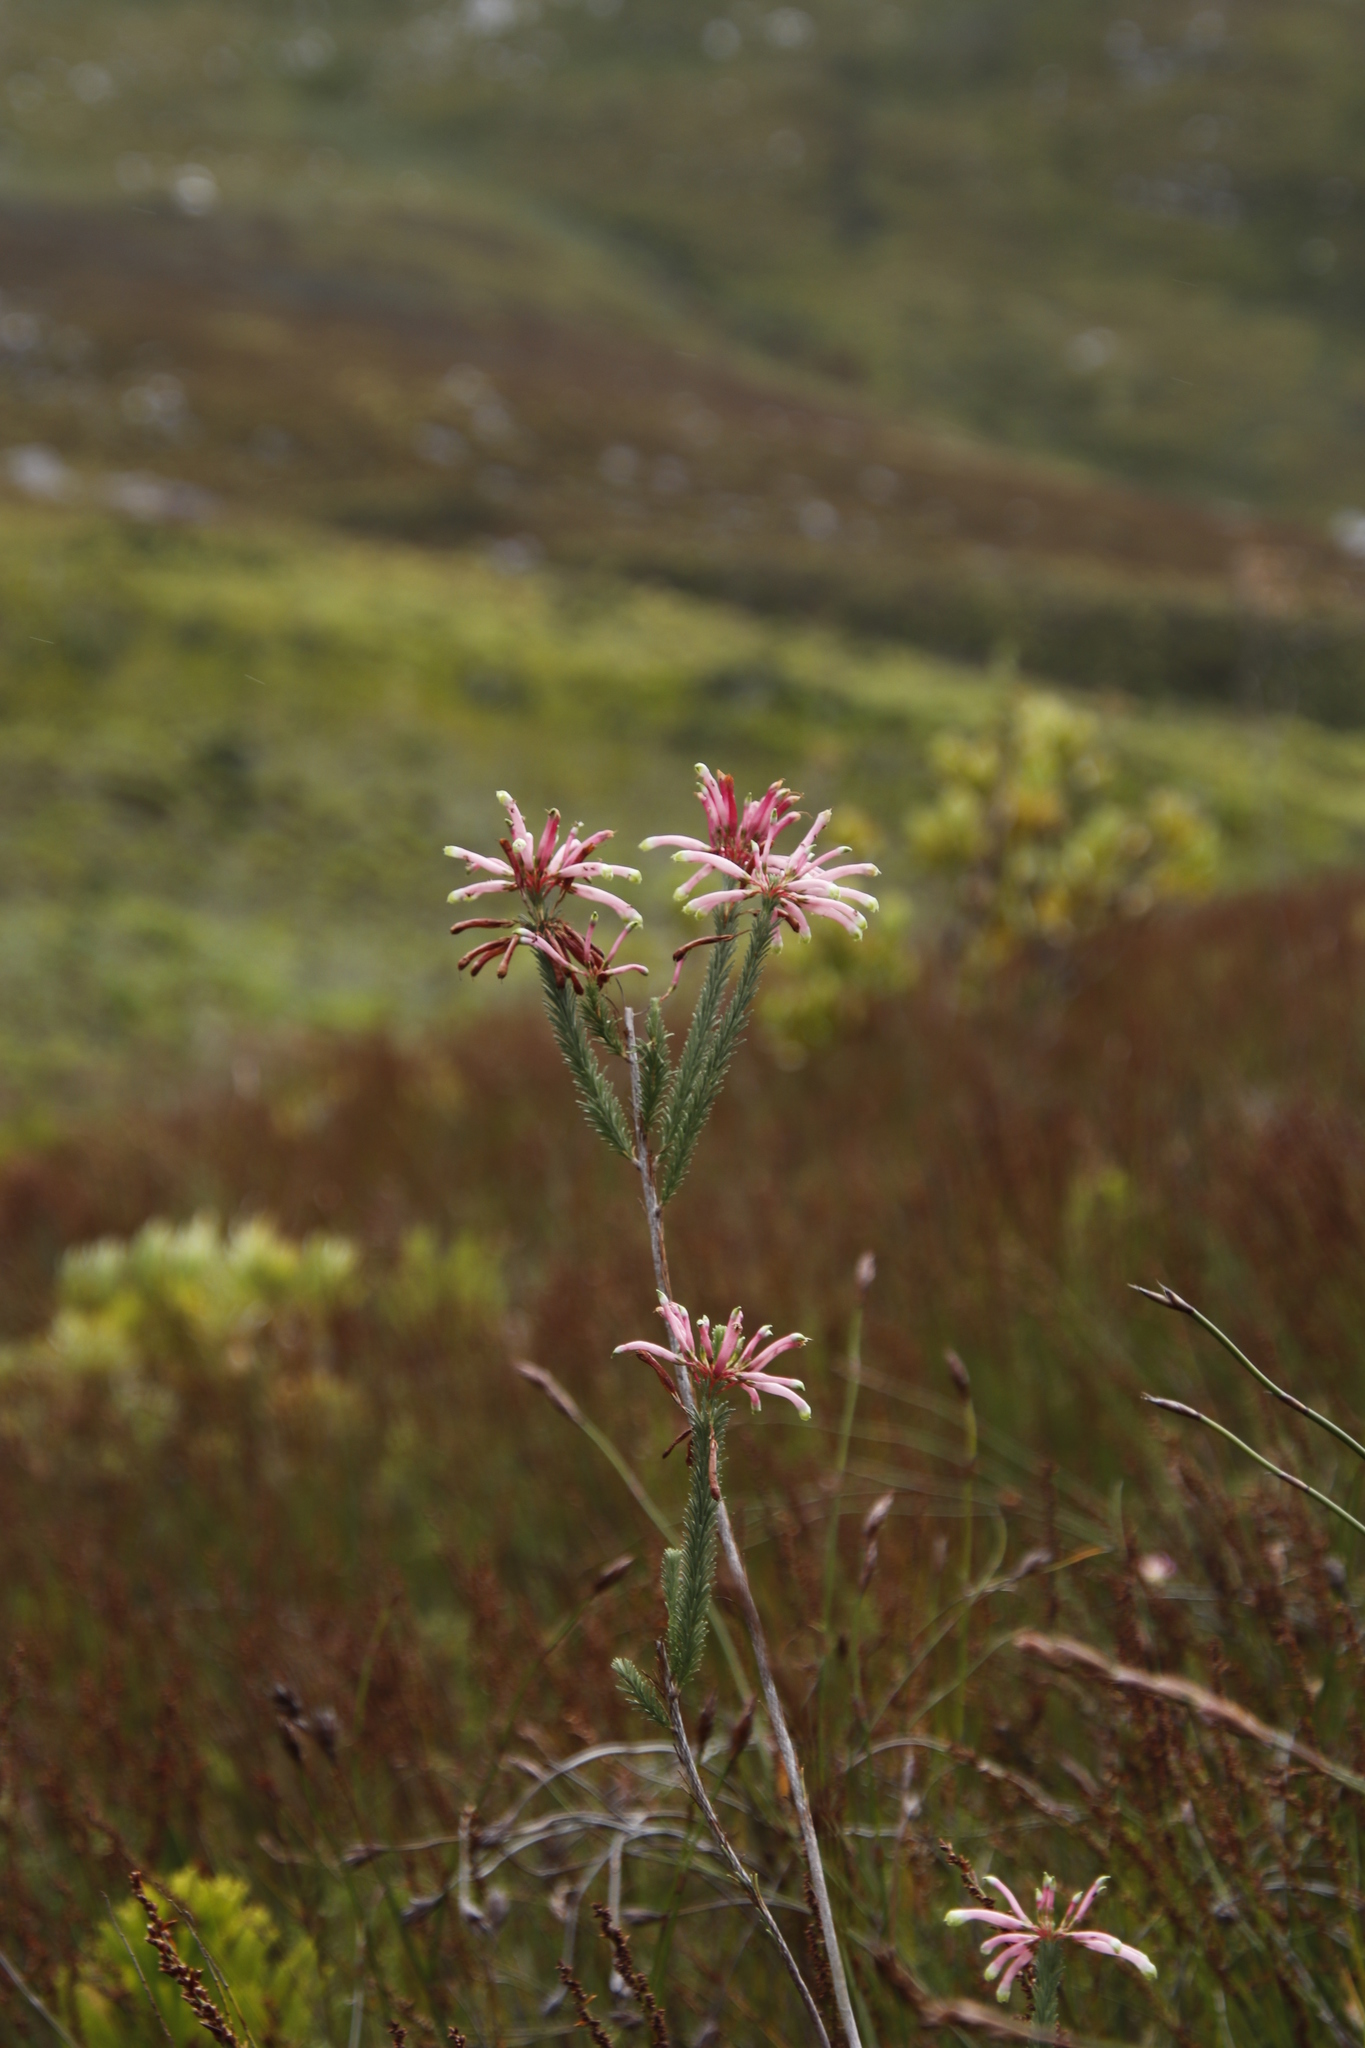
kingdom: Plantae
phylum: Tracheophyta
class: Magnoliopsida
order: Ericales
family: Ericaceae
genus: Erica
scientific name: Erica fascicularis
